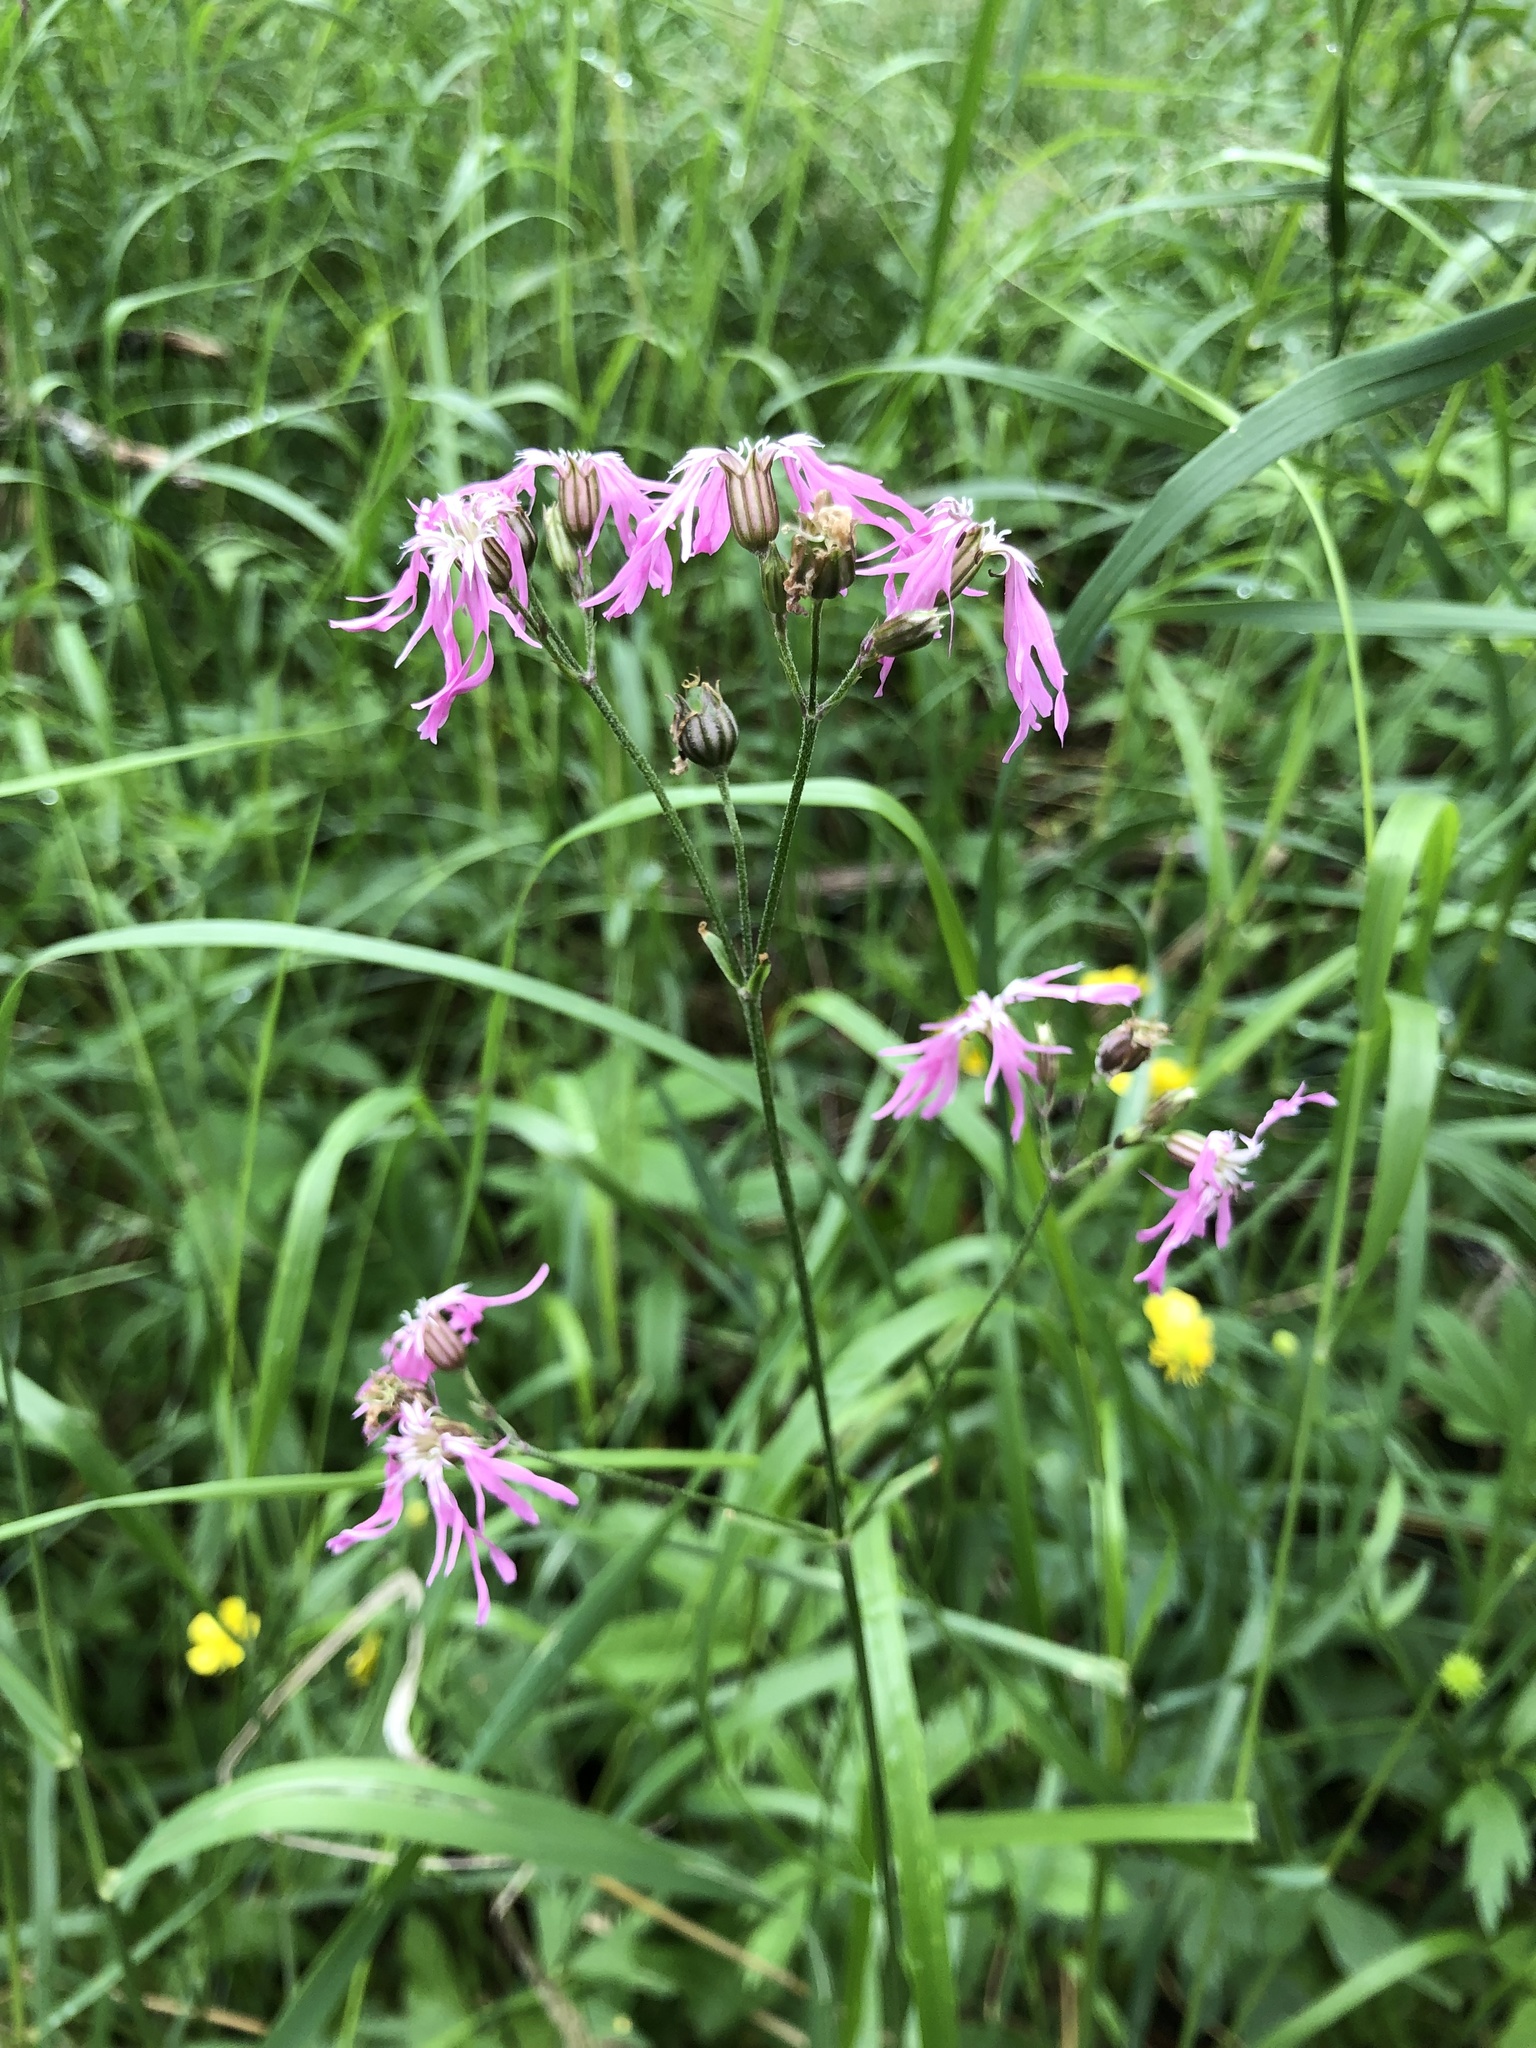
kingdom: Plantae
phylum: Tracheophyta
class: Magnoliopsida
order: Caryophyllales
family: Caryophyllaceae
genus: Silene
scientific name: Silene flos-cuculi
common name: Ragged-robin
